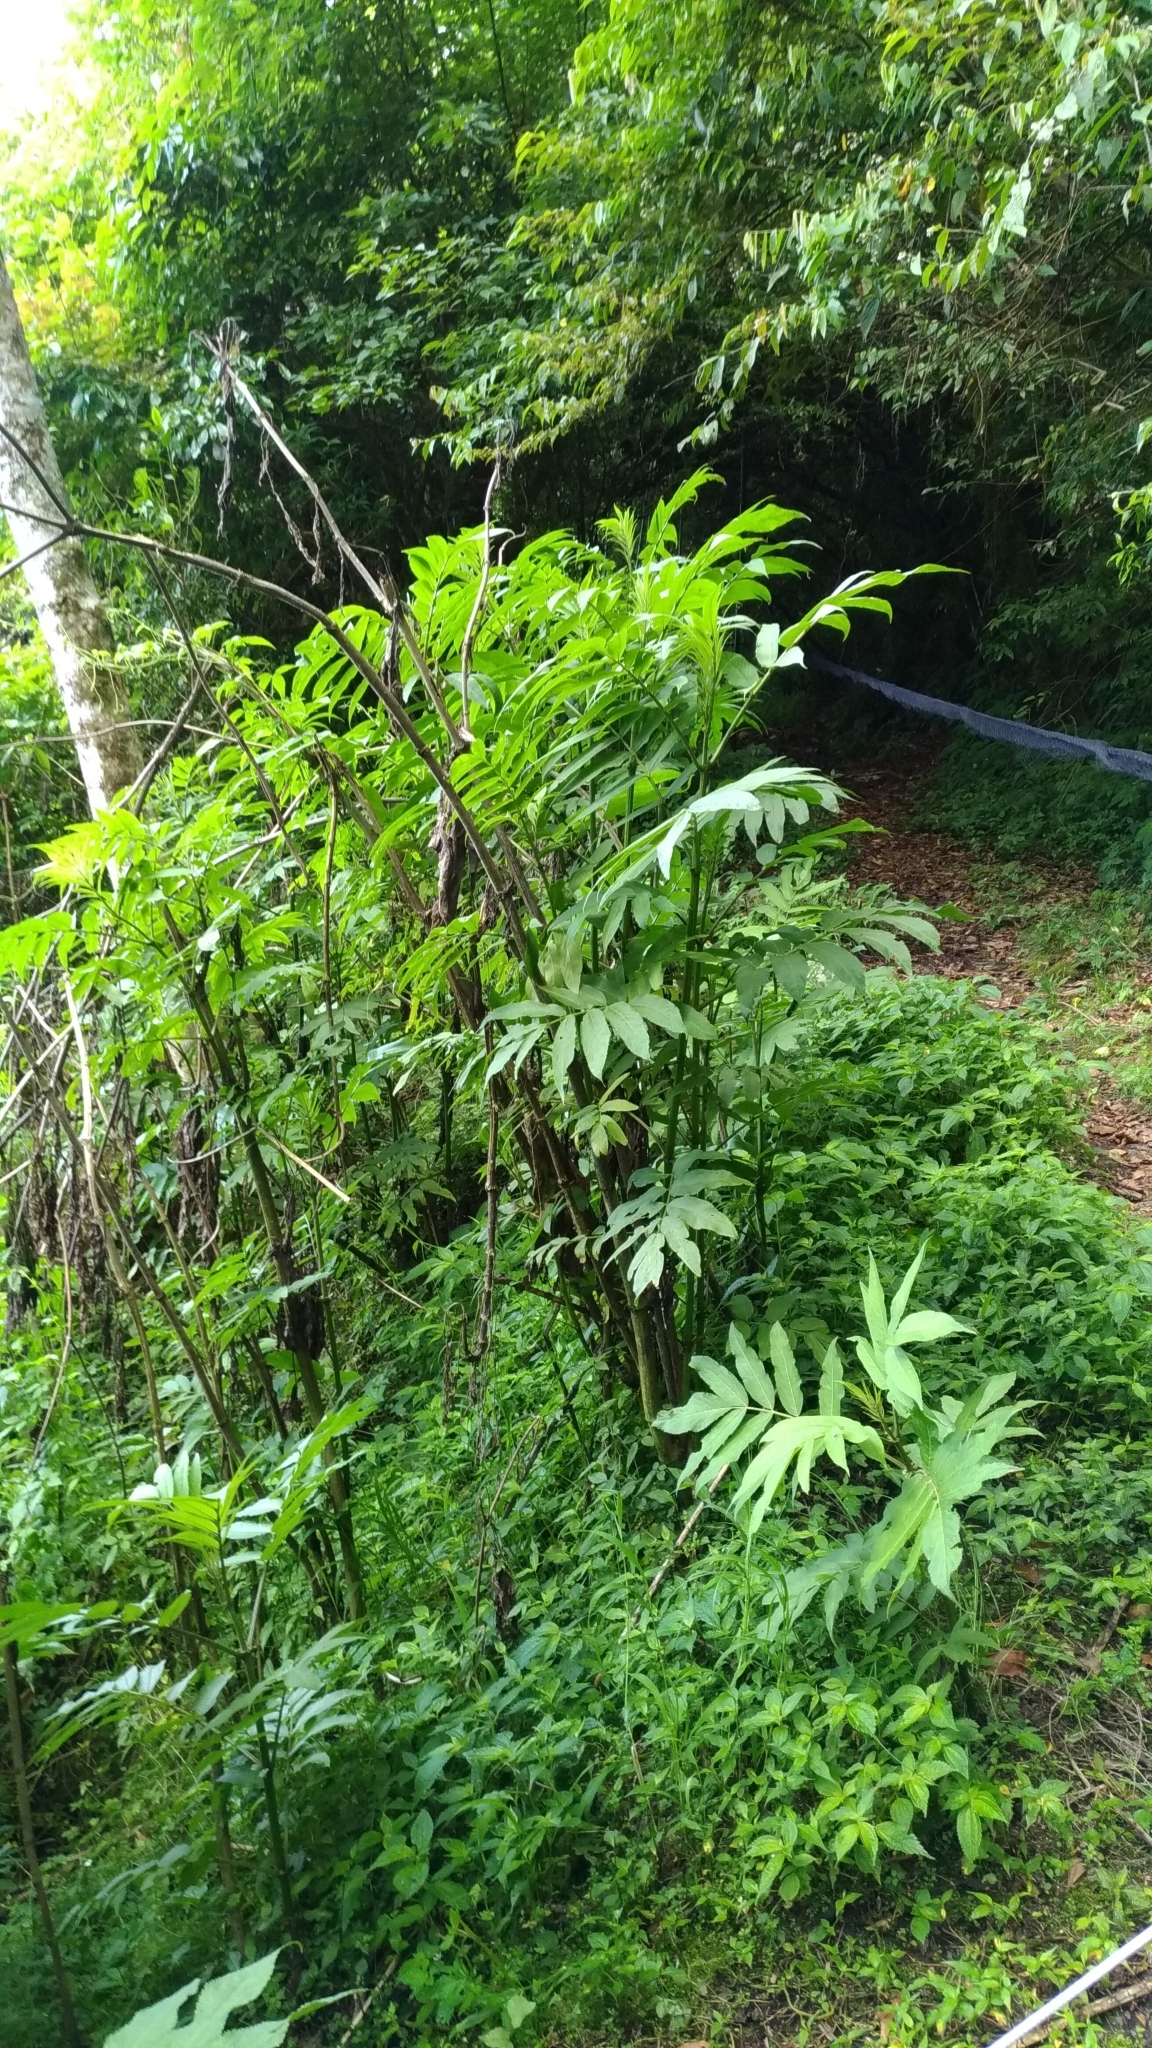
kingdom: Plantae
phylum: Tracheophyta
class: Magnoliopsida
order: Dipsacales
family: Viburnaceae
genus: Sambucus
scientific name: Sambucus javanica
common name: Chinese elder
